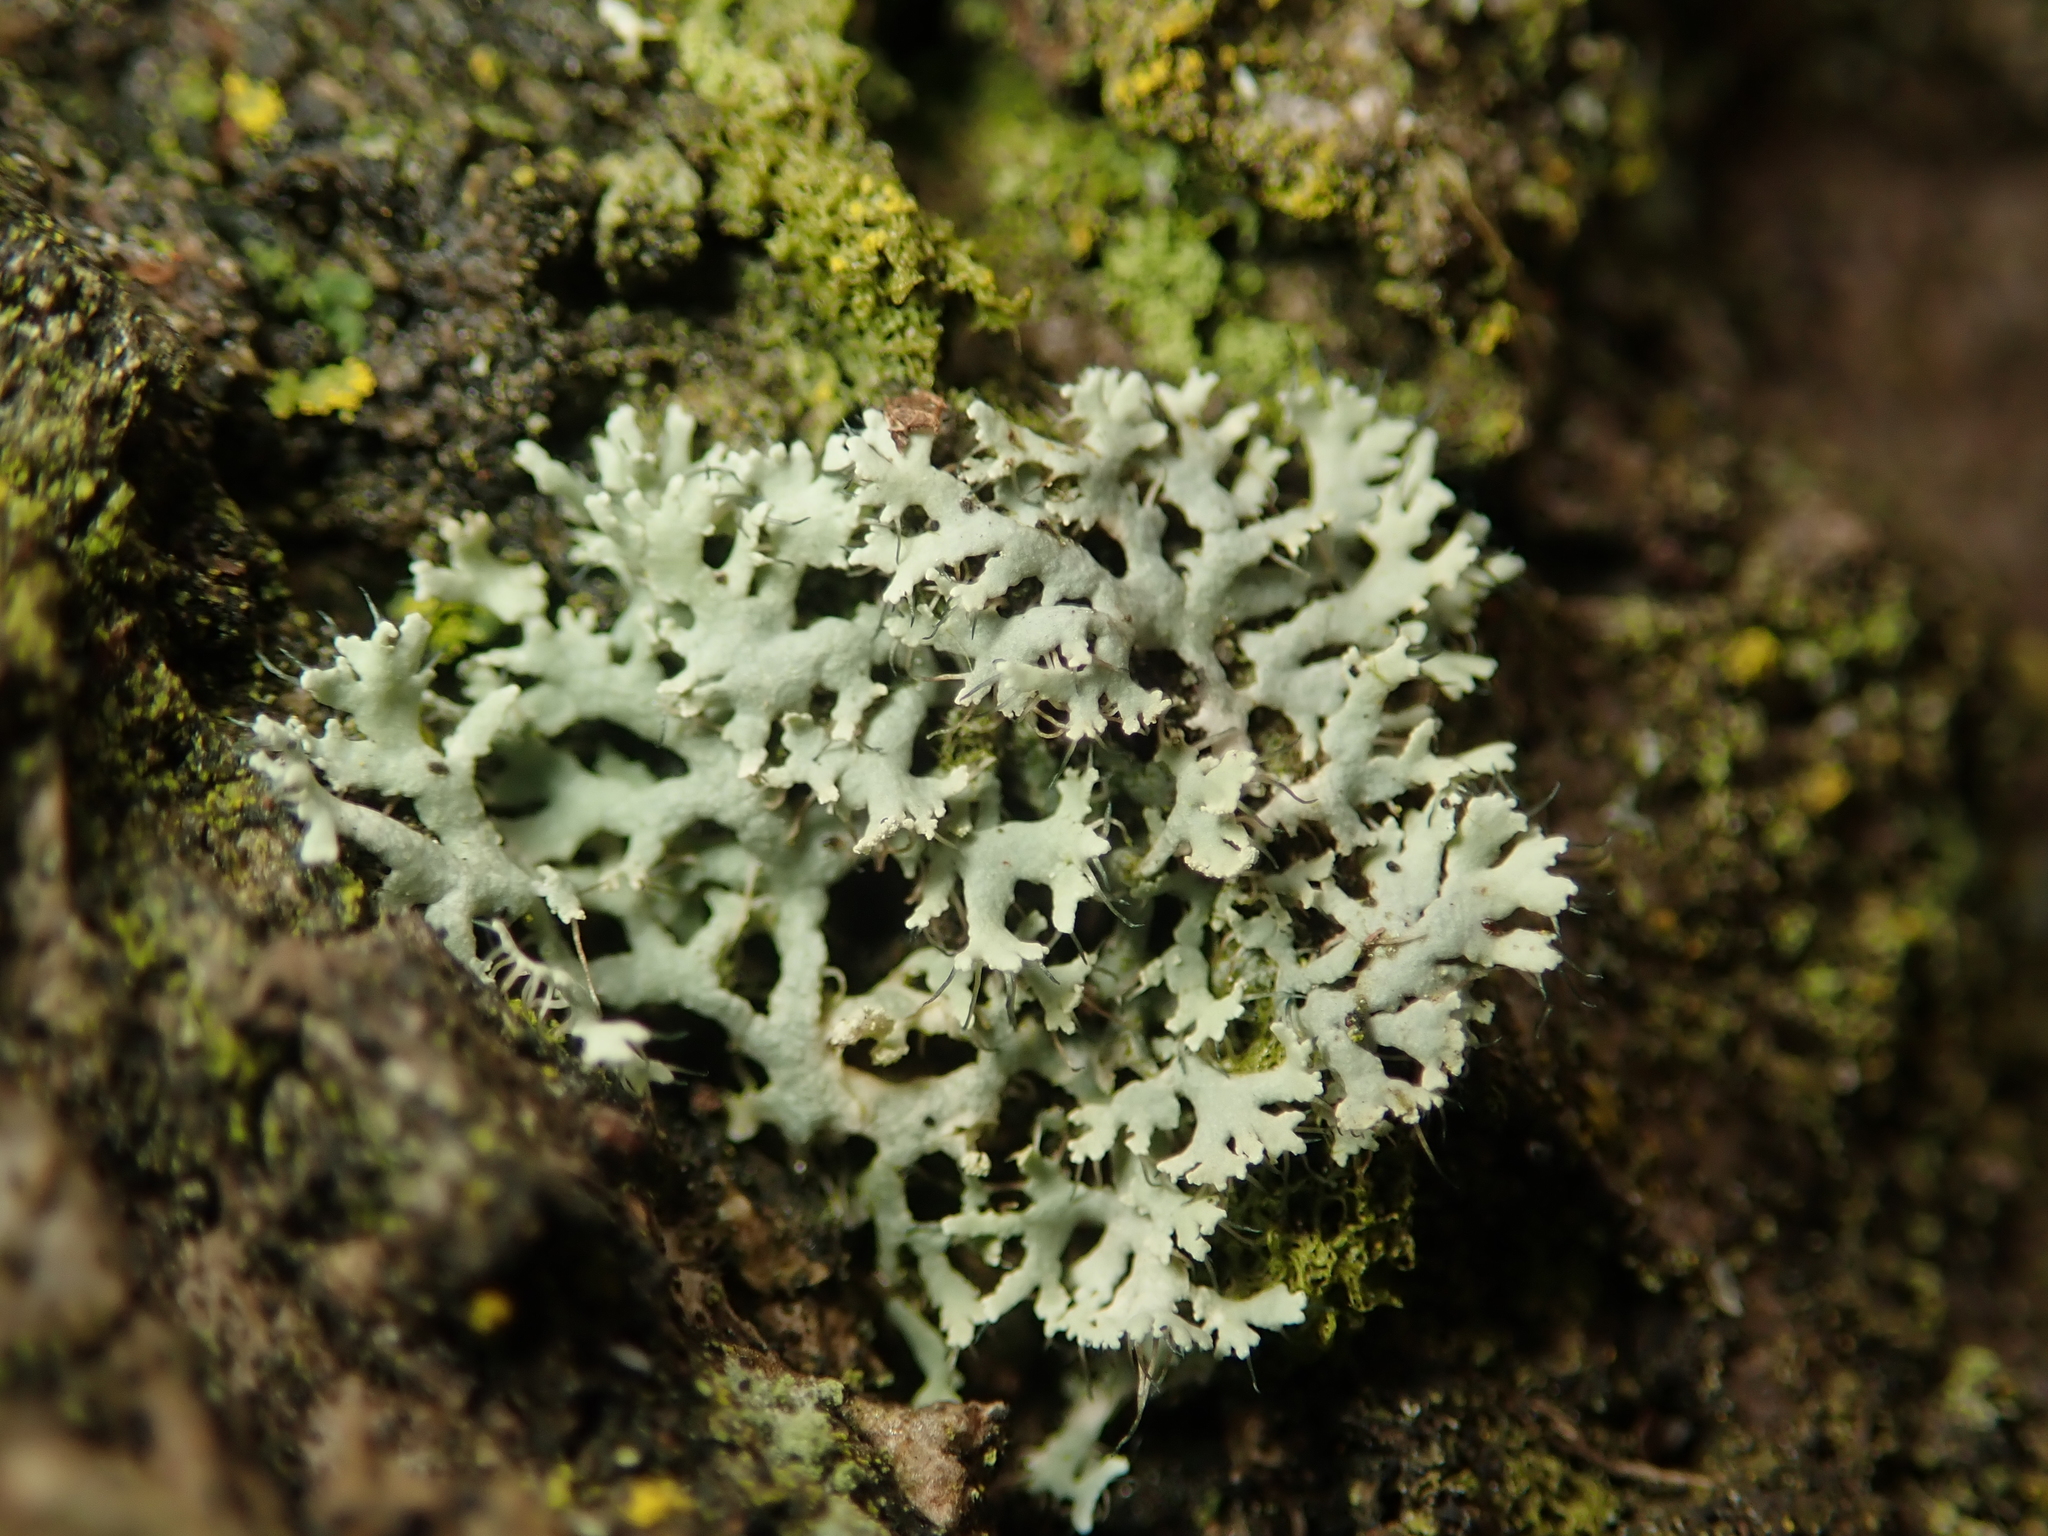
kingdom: Fungi
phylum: Ascomycota
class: Lecanoromycetes
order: Caliciales
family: Physciaceae
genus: Physcia
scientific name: Physcia tenella
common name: Fringed rosette lichen
